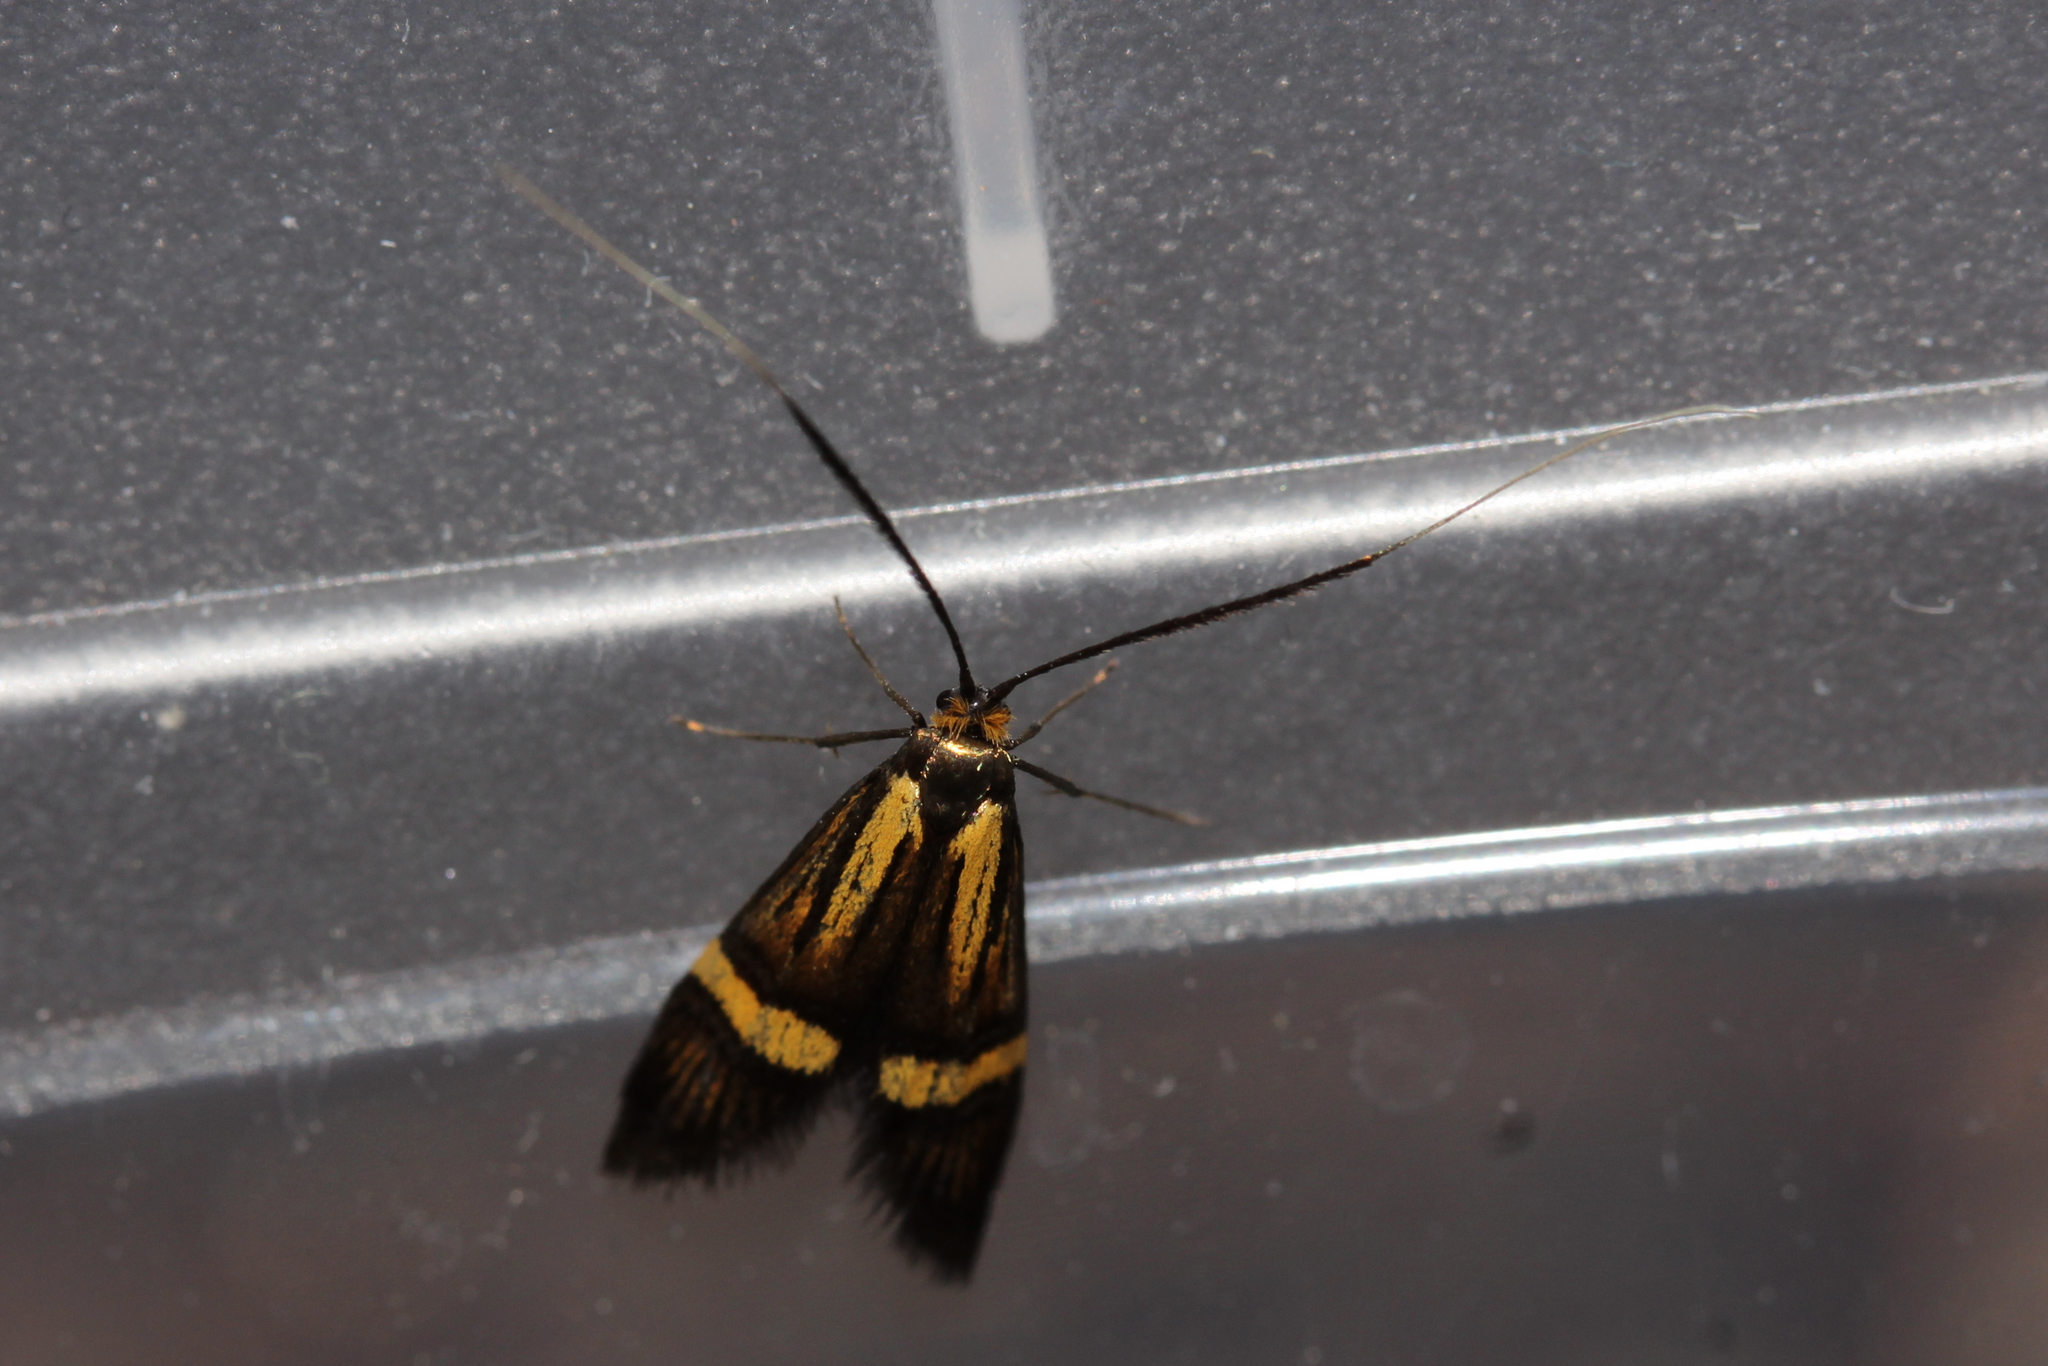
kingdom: Animalia
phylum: Arthropoda
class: Insecta
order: Lepidoptera
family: Adelidae
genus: Nemophora
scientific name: Nemophora
